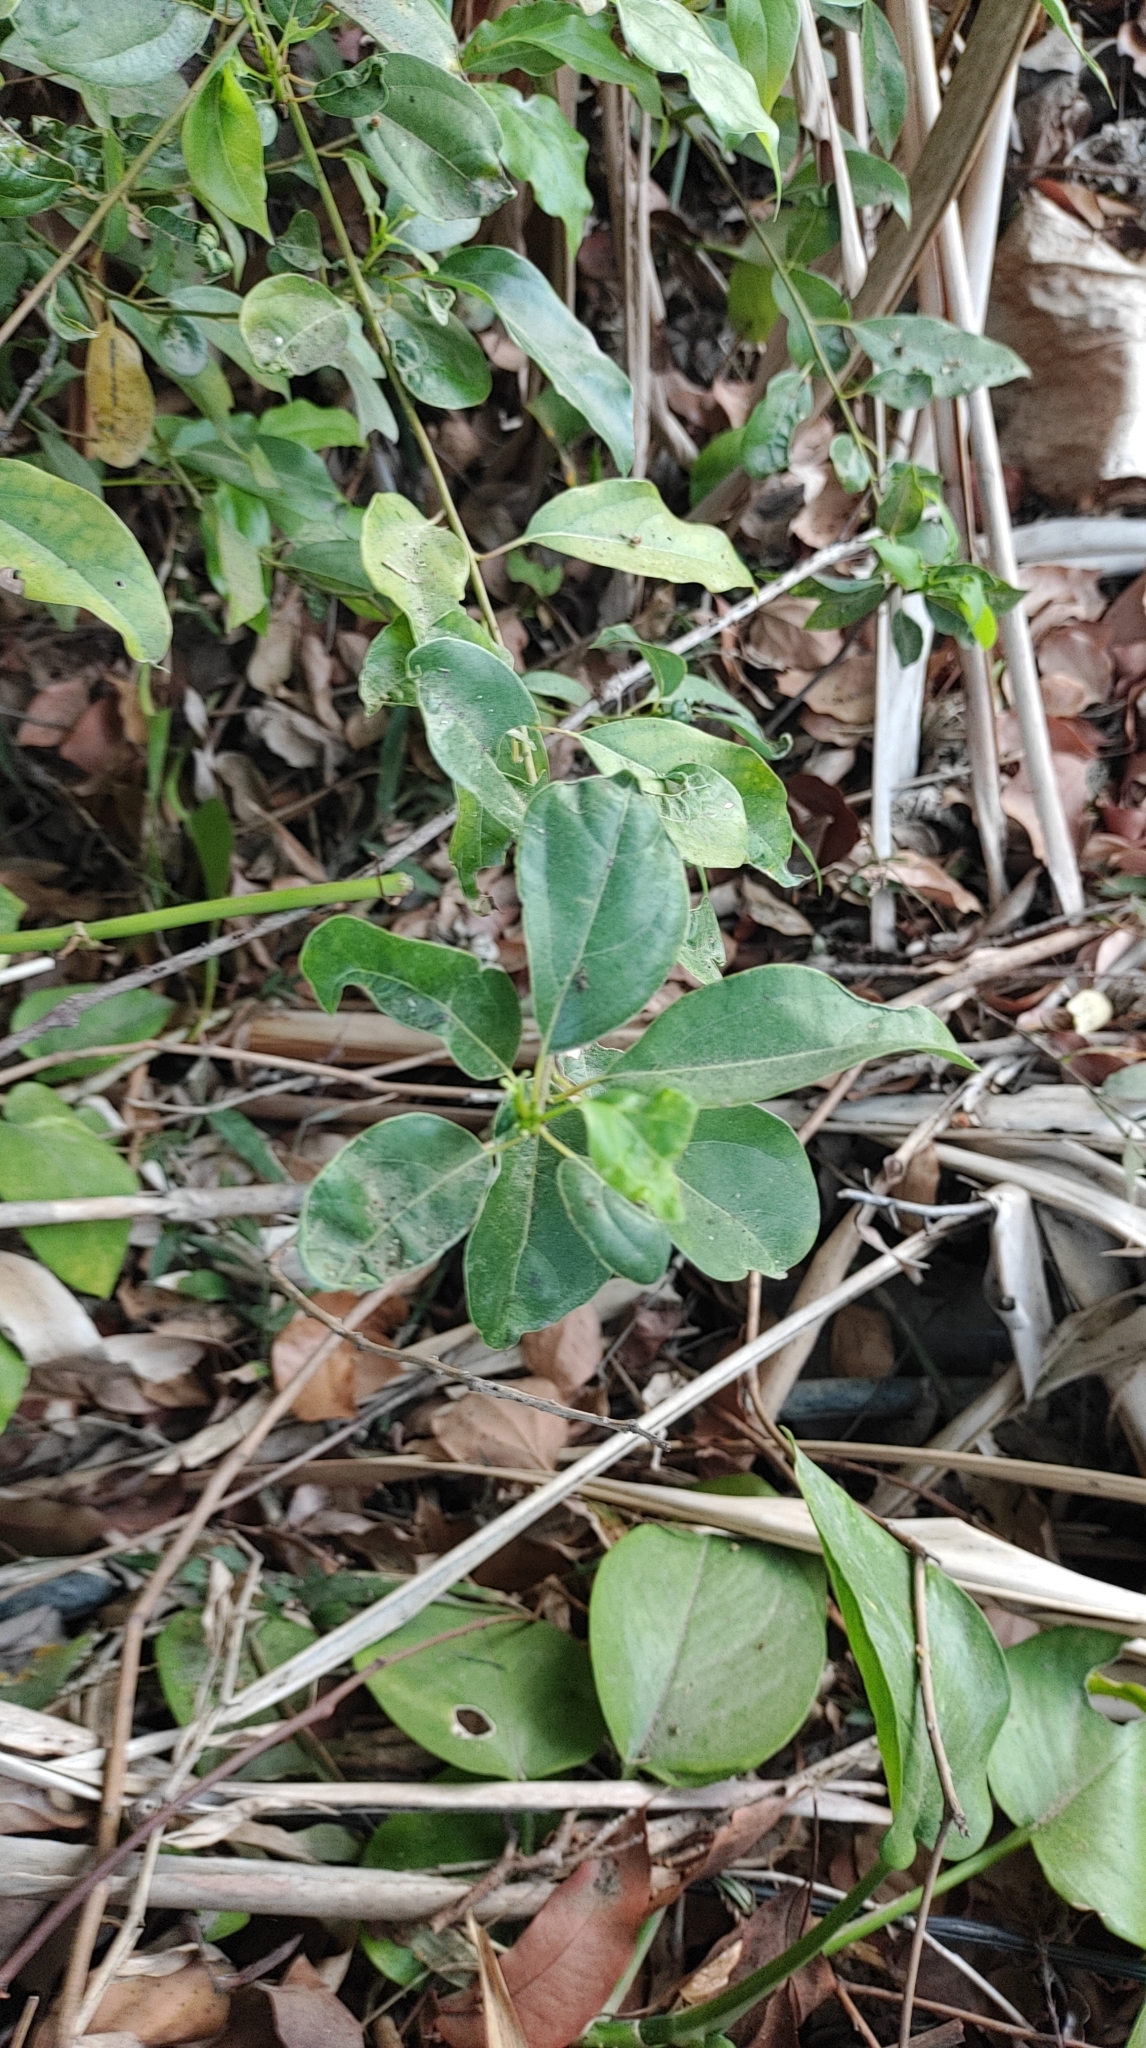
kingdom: Plantae
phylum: Tracheophyta
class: Magnoliopsida
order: Laurales
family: Lauraceae
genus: Cinnamomum
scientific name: Cinnamomum camphora
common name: Camphortree
